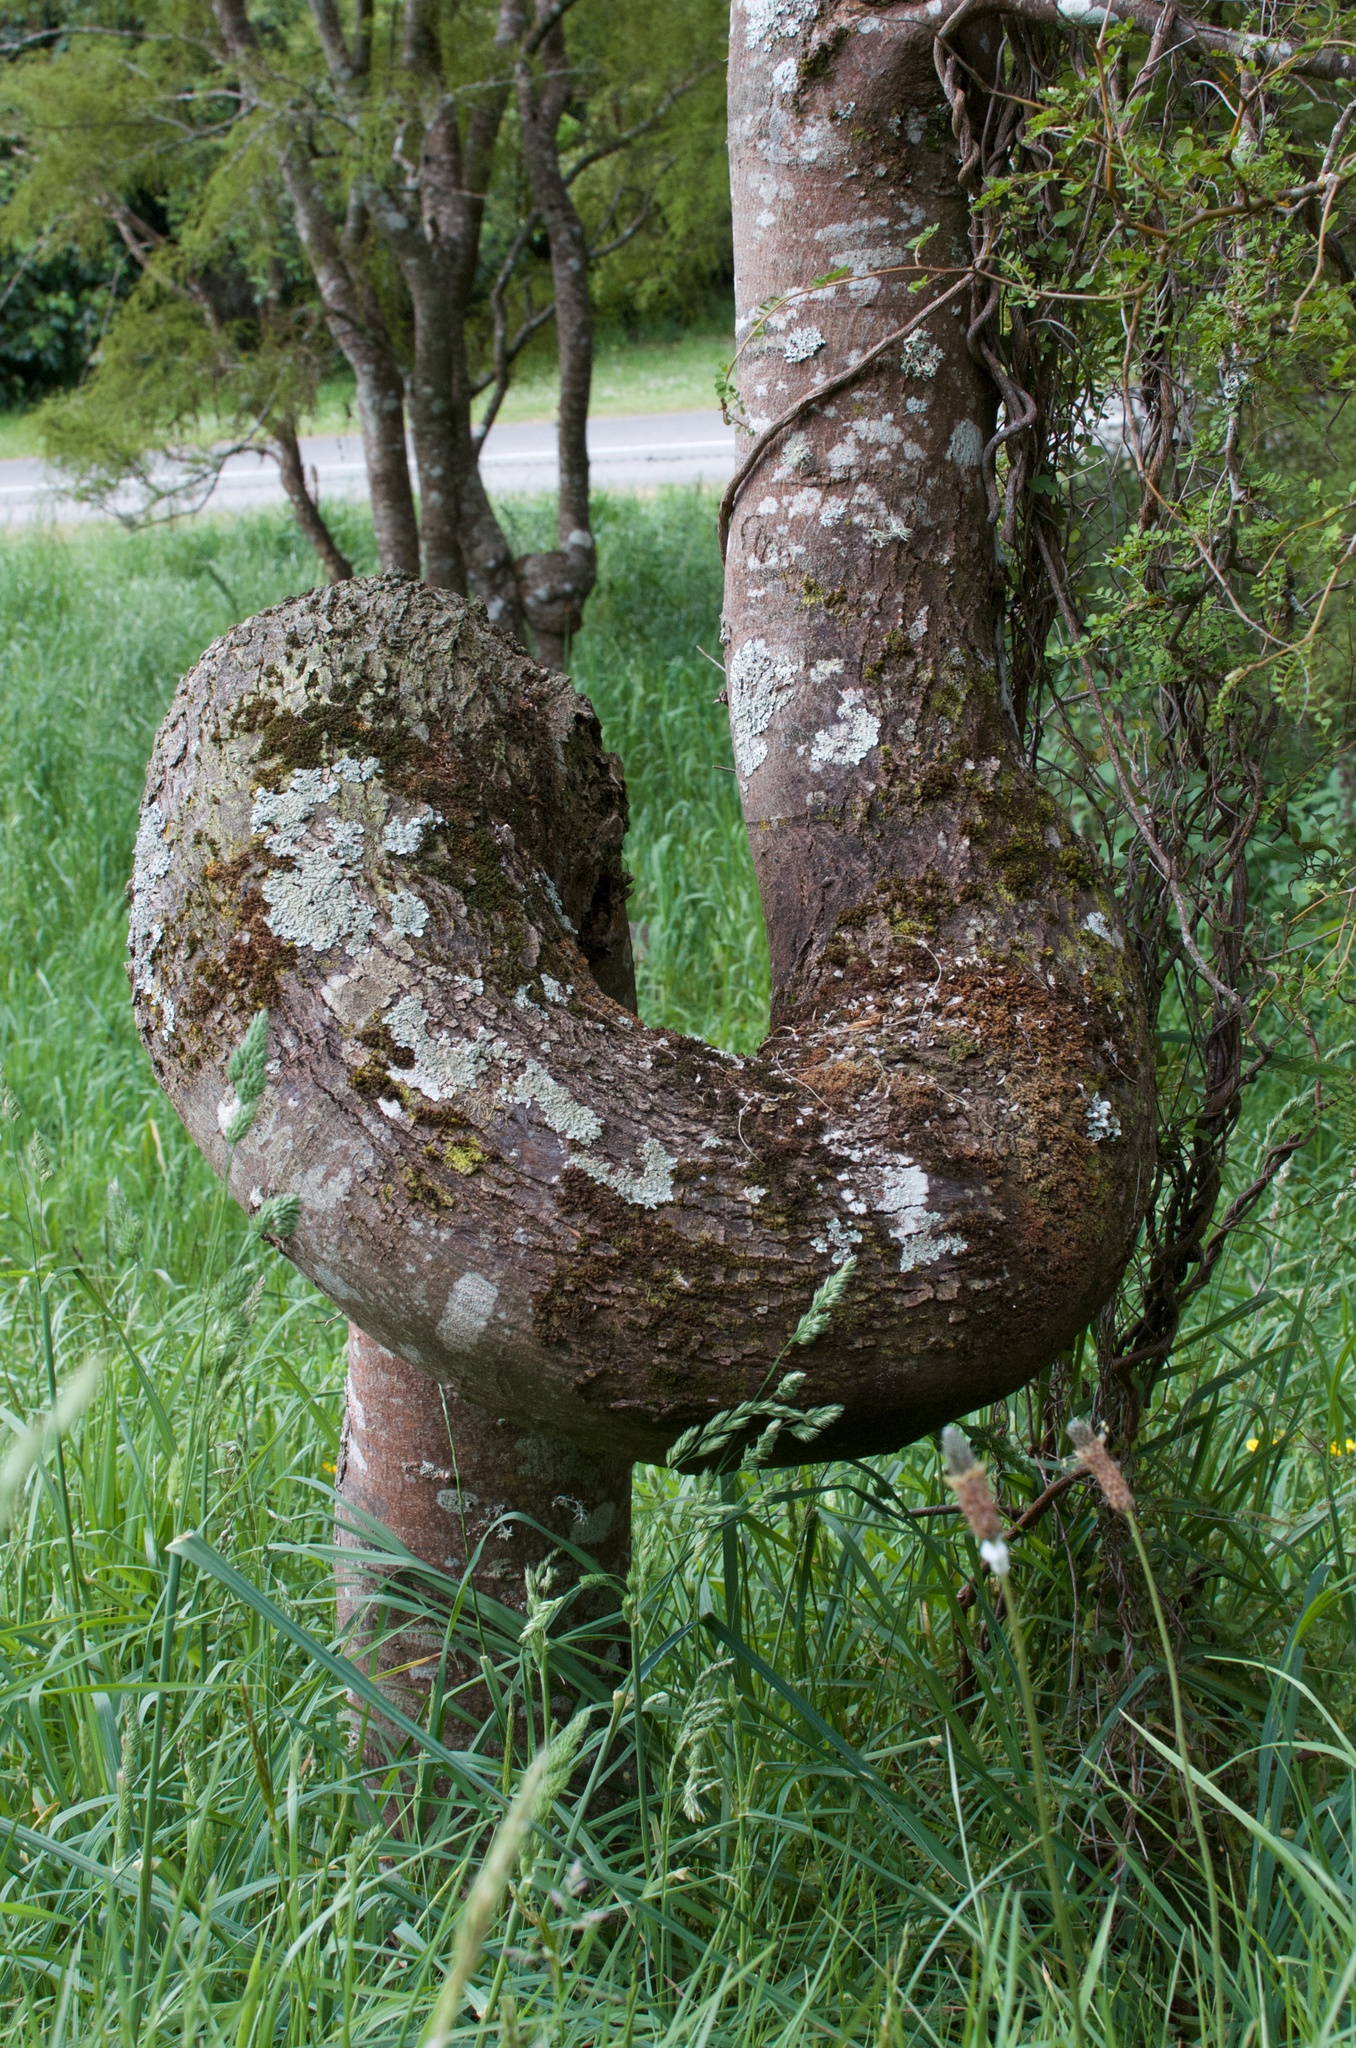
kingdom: Plantae
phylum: Tracheophyta
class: Magnoliopsida
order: Fabales
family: Fabaceae
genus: Sophora
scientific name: Sophora microphylla
